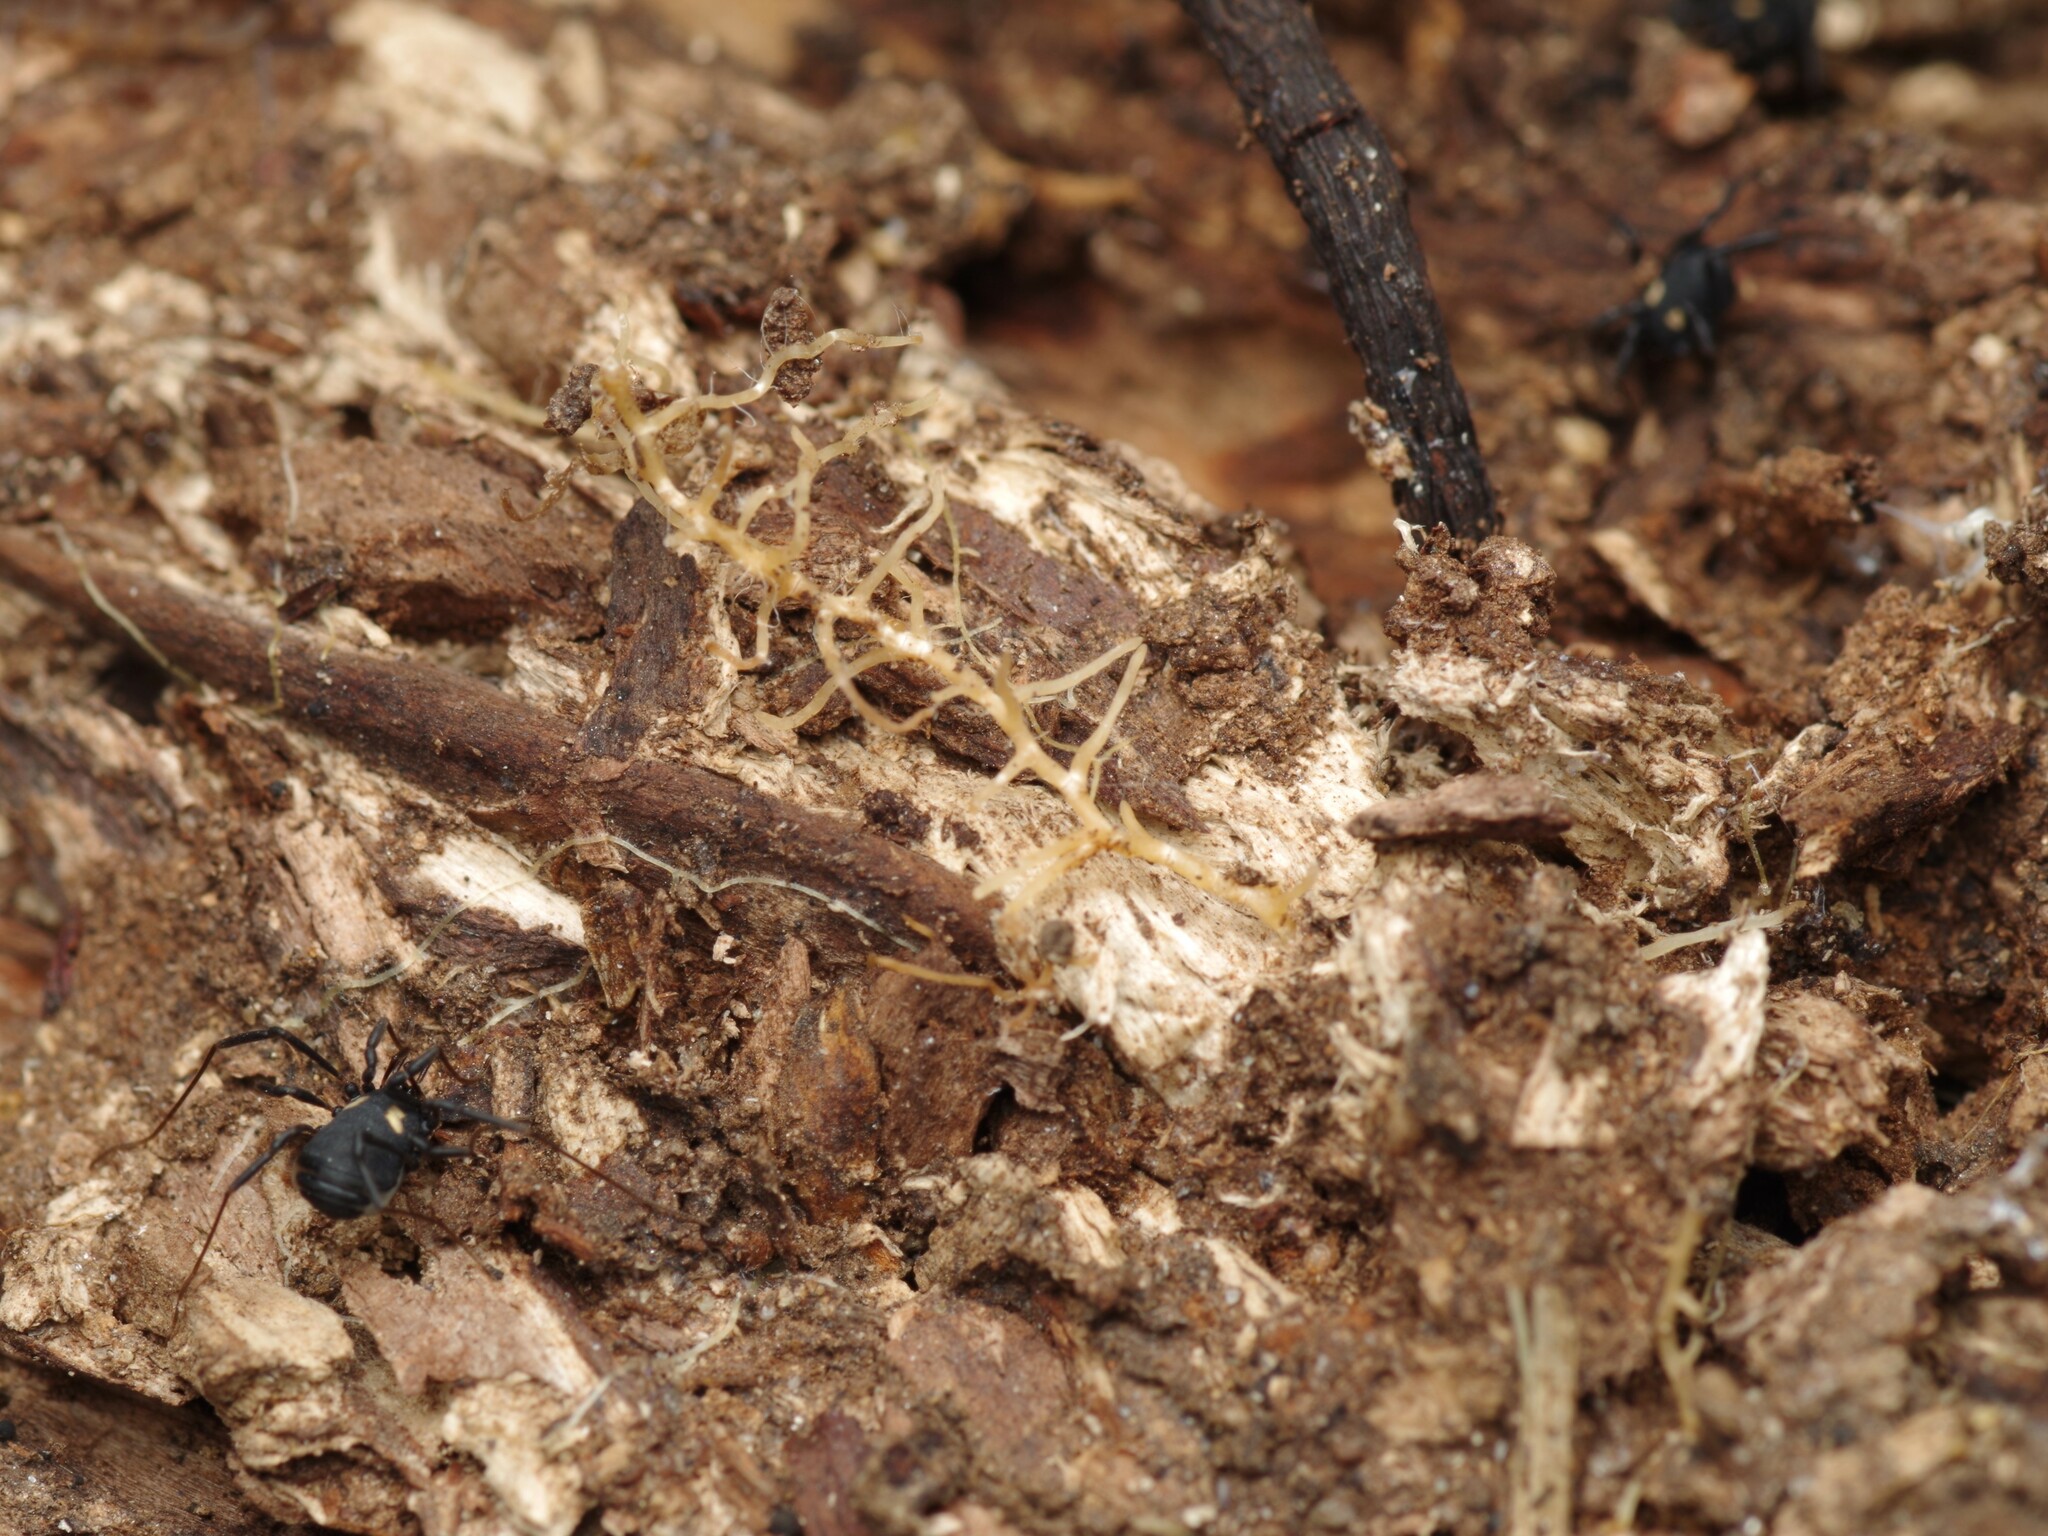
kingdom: Animalia
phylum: Arthropoda
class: Arachnida
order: Opiliones
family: Nemastomatidae
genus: Nemastoma
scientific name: Nemastoma bimaculatum
